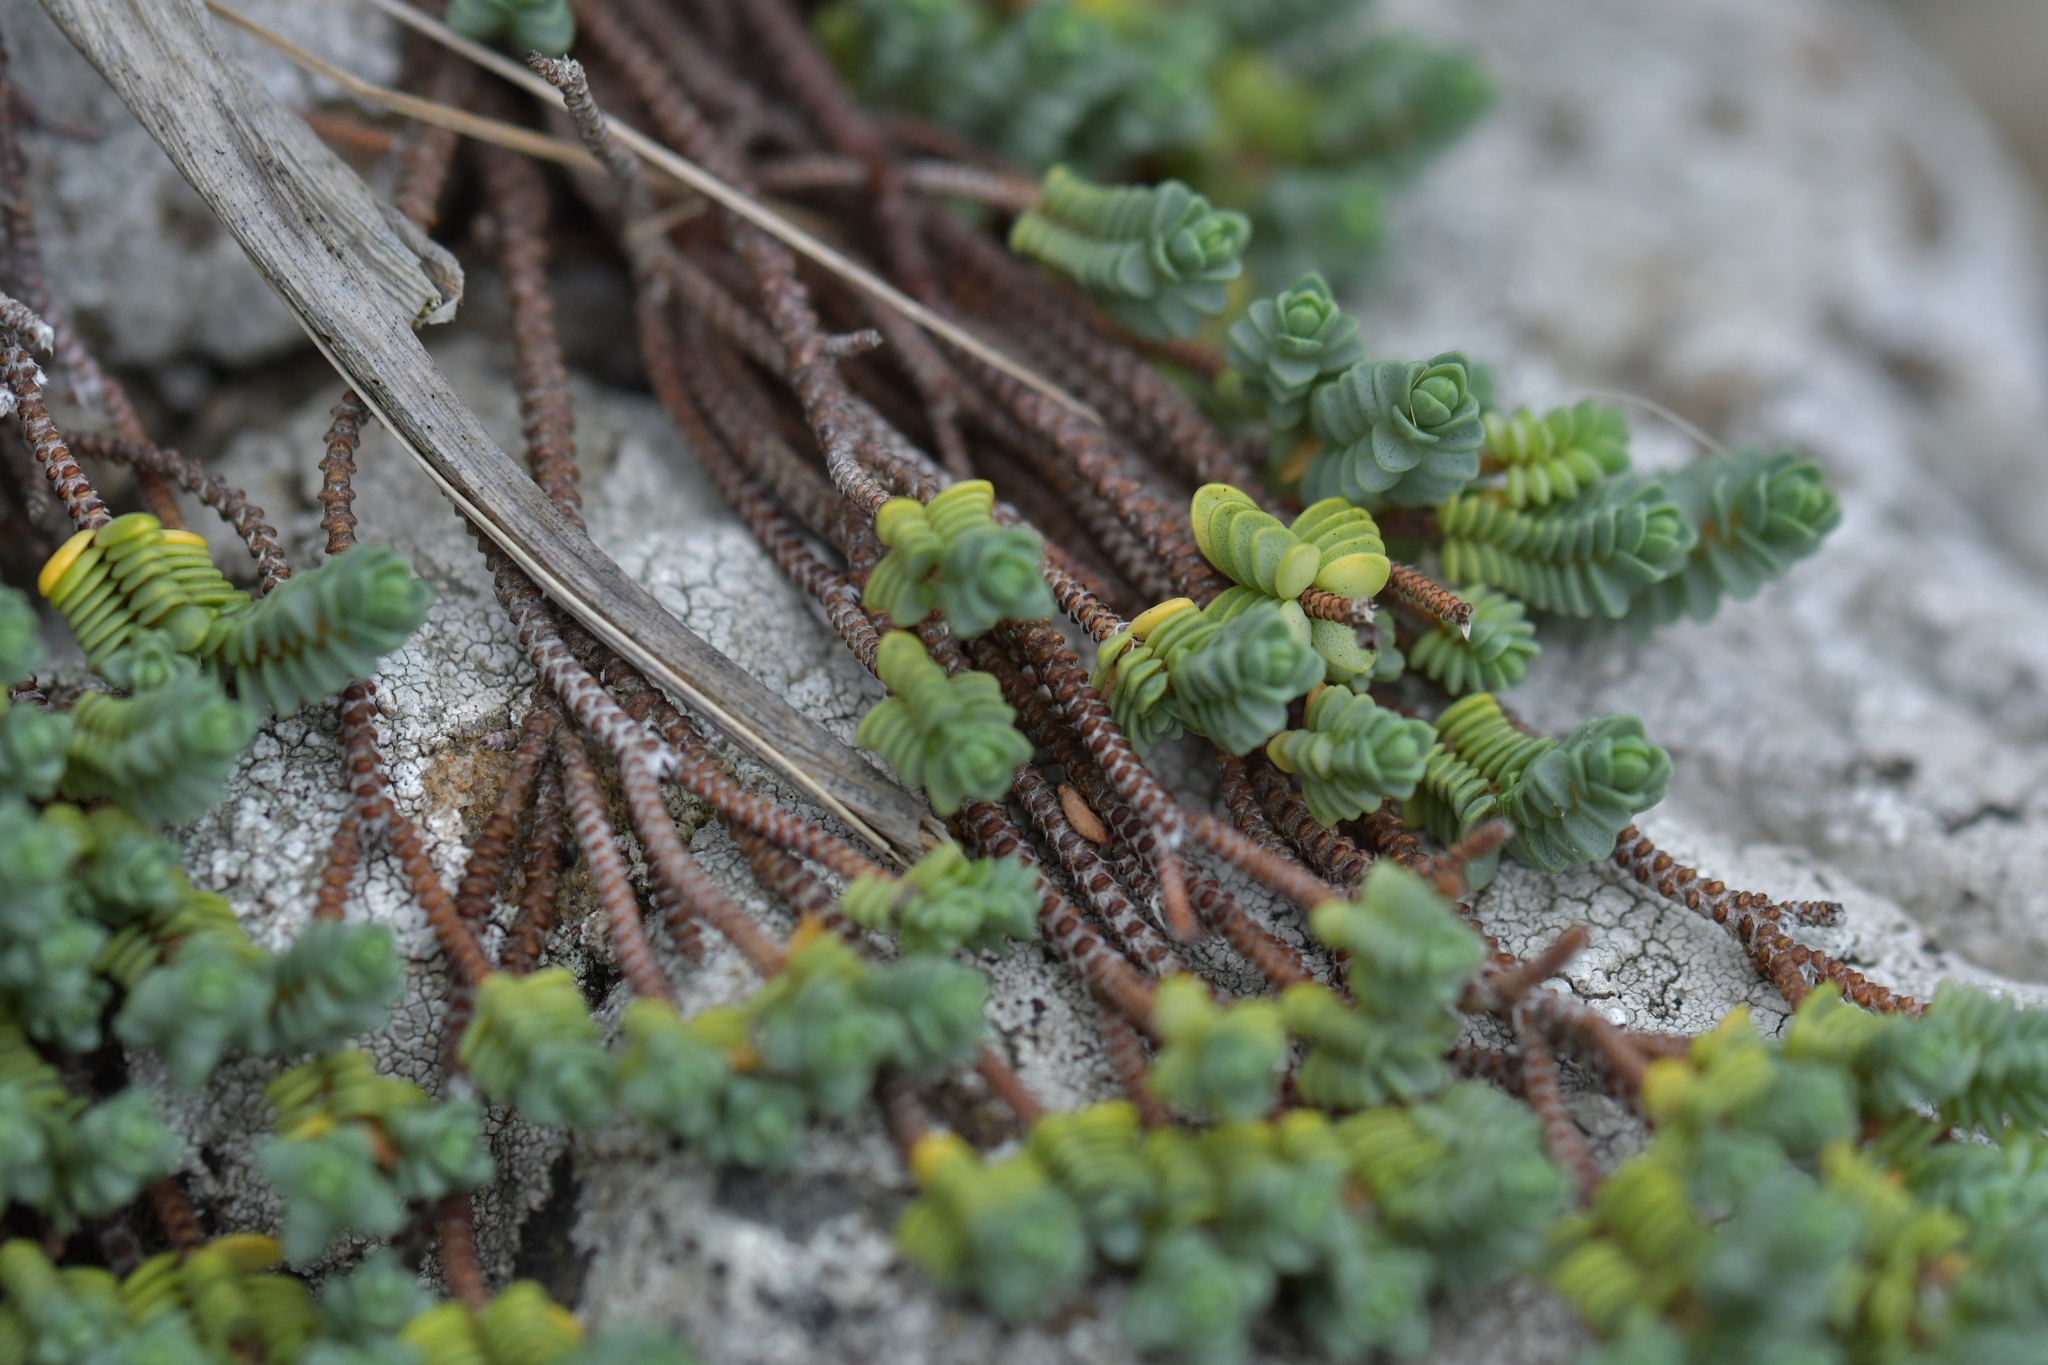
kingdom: Plantae
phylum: Tracheophyta
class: Magnoliopsida
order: Malvales
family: Thymelaeaceae
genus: Pimelea
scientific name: Pimelea carnosa
